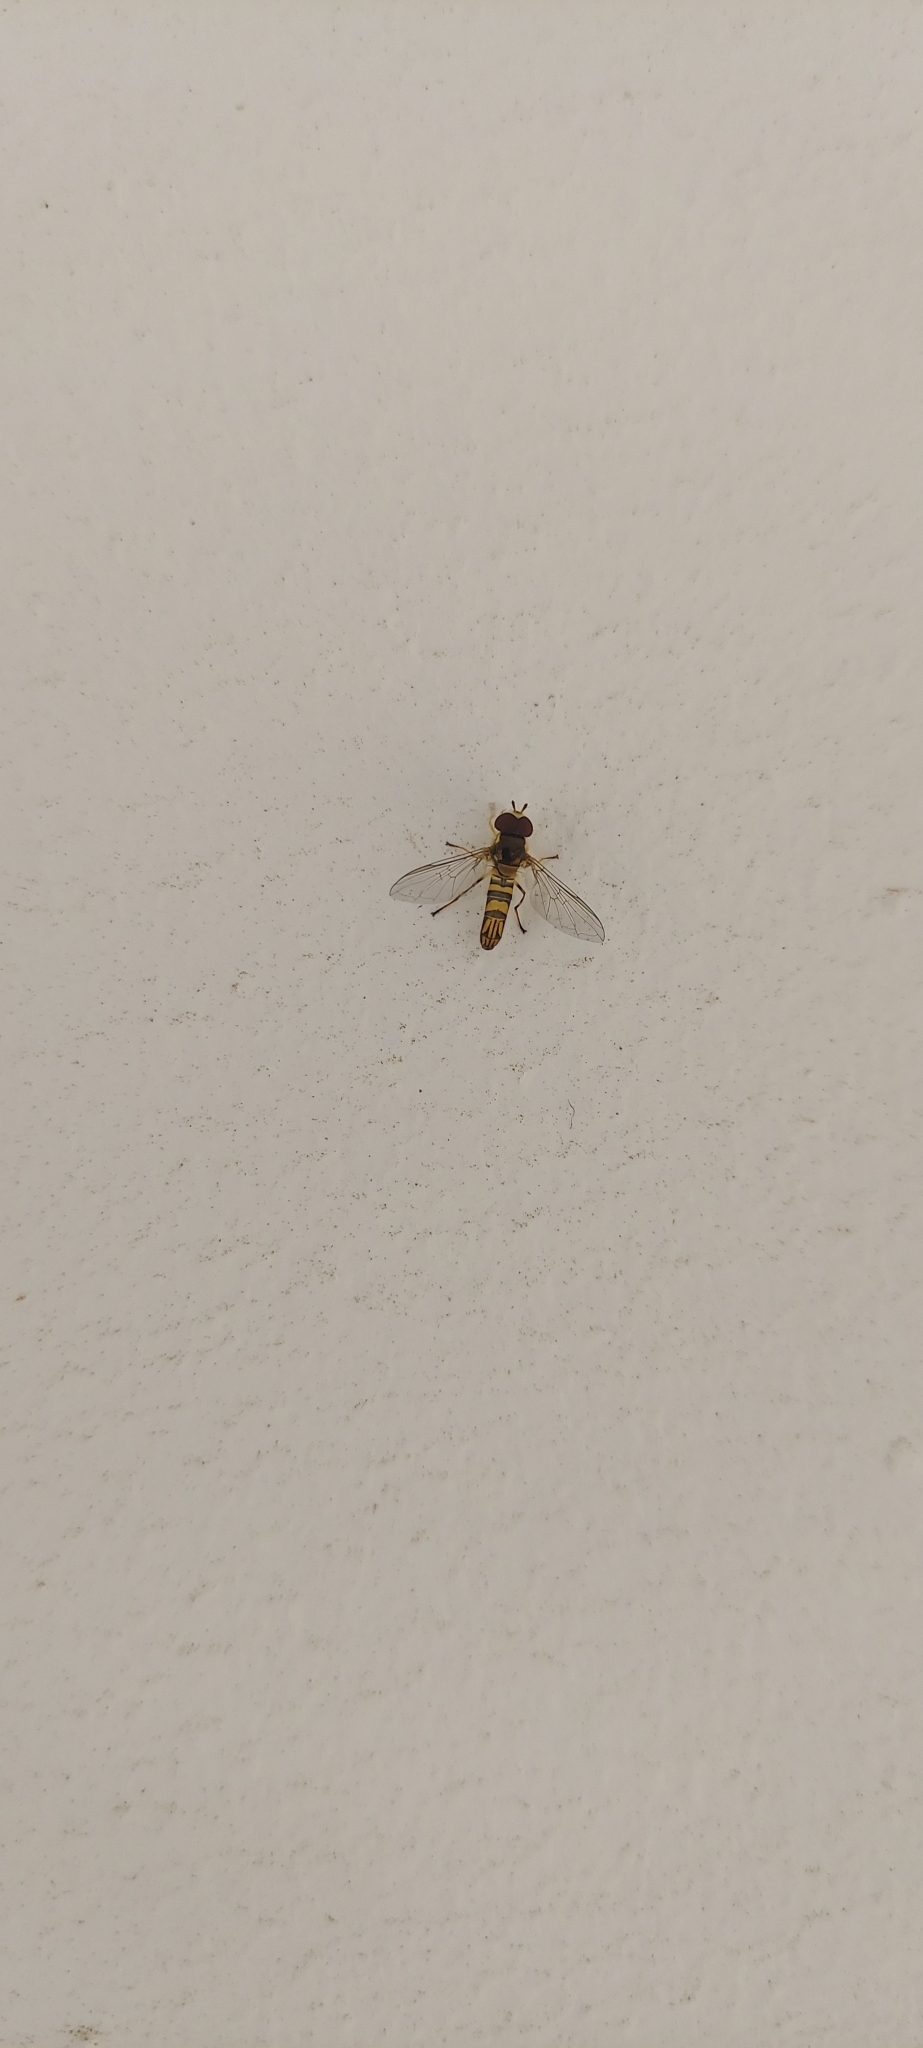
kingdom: Animalia
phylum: Arthropoda
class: Insecta
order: Diptera
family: Syrphidae
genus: Allograpta
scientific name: Allograpta obliqua
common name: Common oblique syrphid
